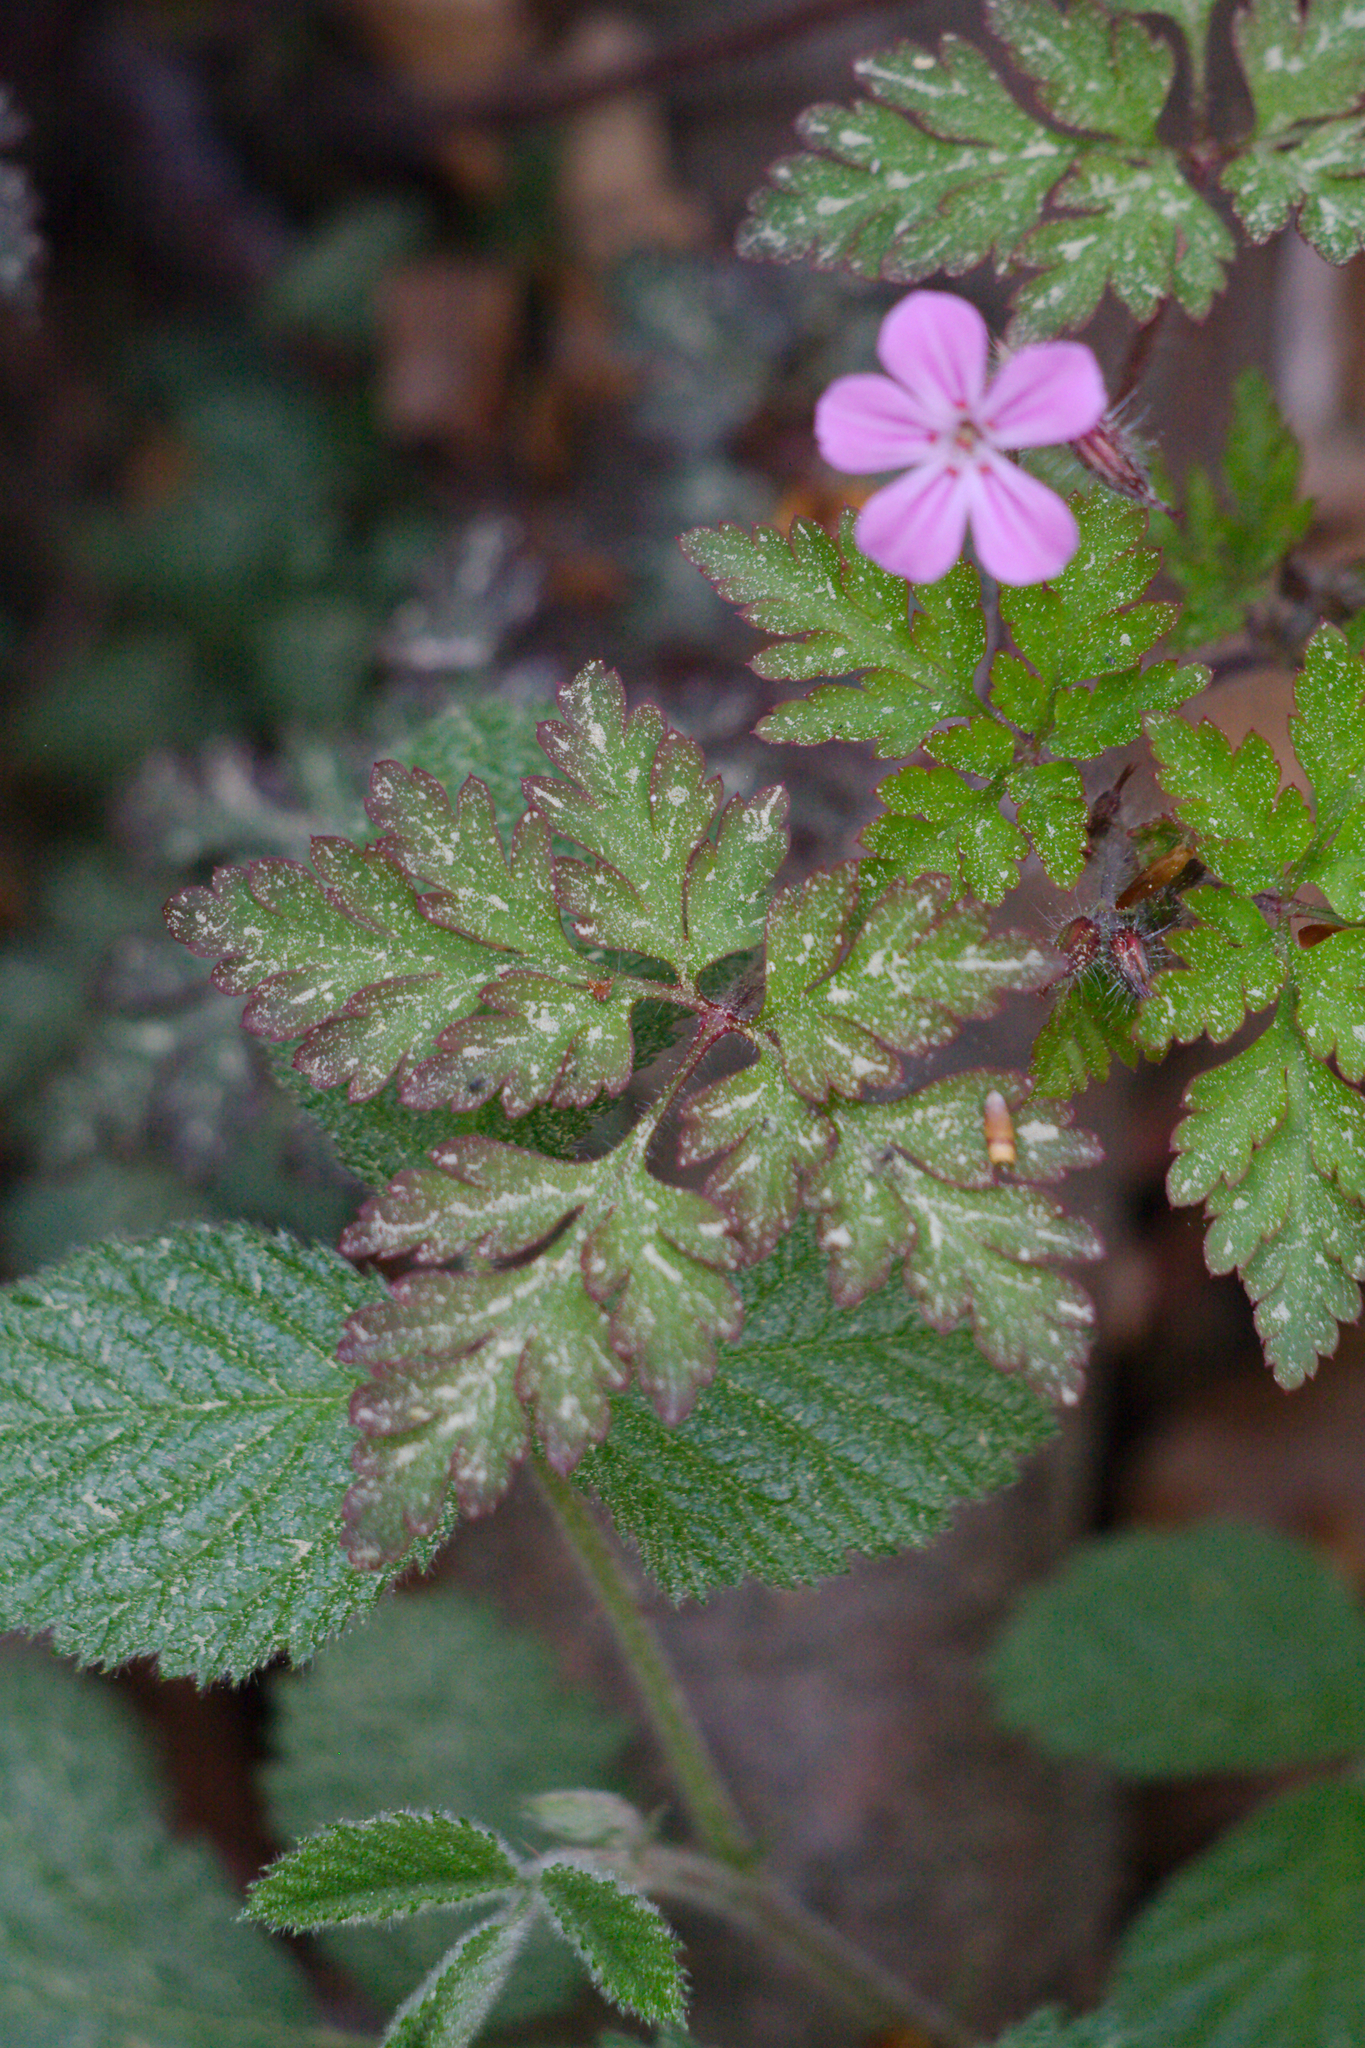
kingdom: Plantae
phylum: Tracheophyta
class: Magnoliopsida
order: Geraniales
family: Geraniaceae
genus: Geranium
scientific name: Geranium robertianum
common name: Herb-robert
